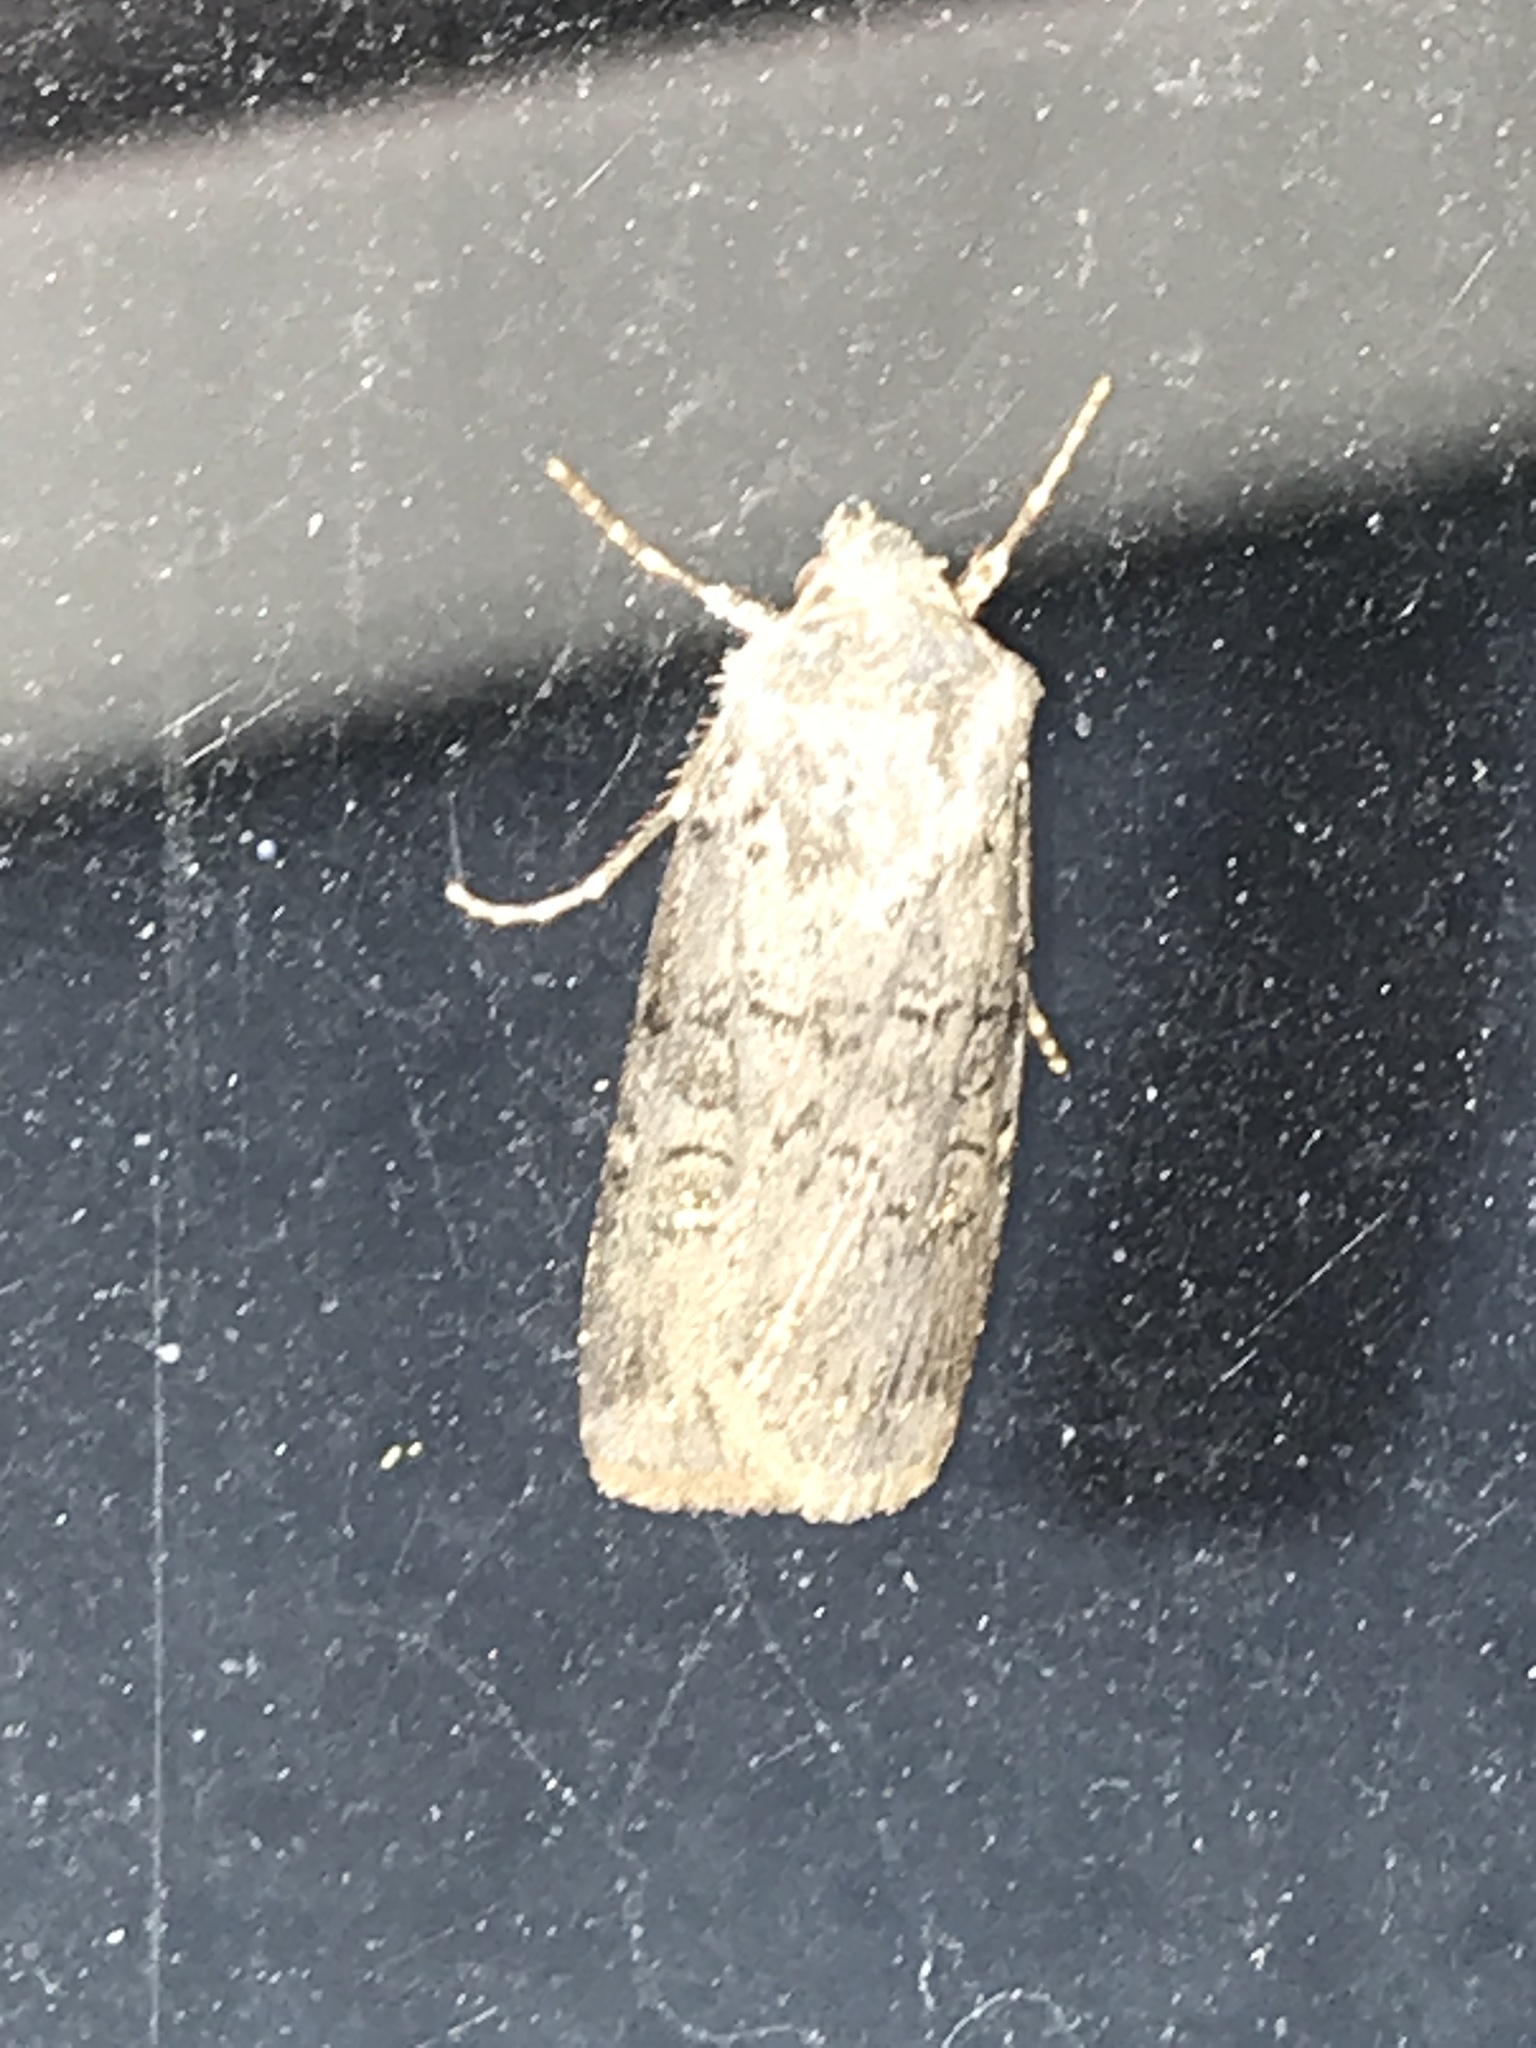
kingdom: Animalia
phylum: Arthropoda
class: Insecta
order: Lepidoptera
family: Noctuidae
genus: Euxoa
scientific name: Euxoa messoria
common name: Darksided cutworm
